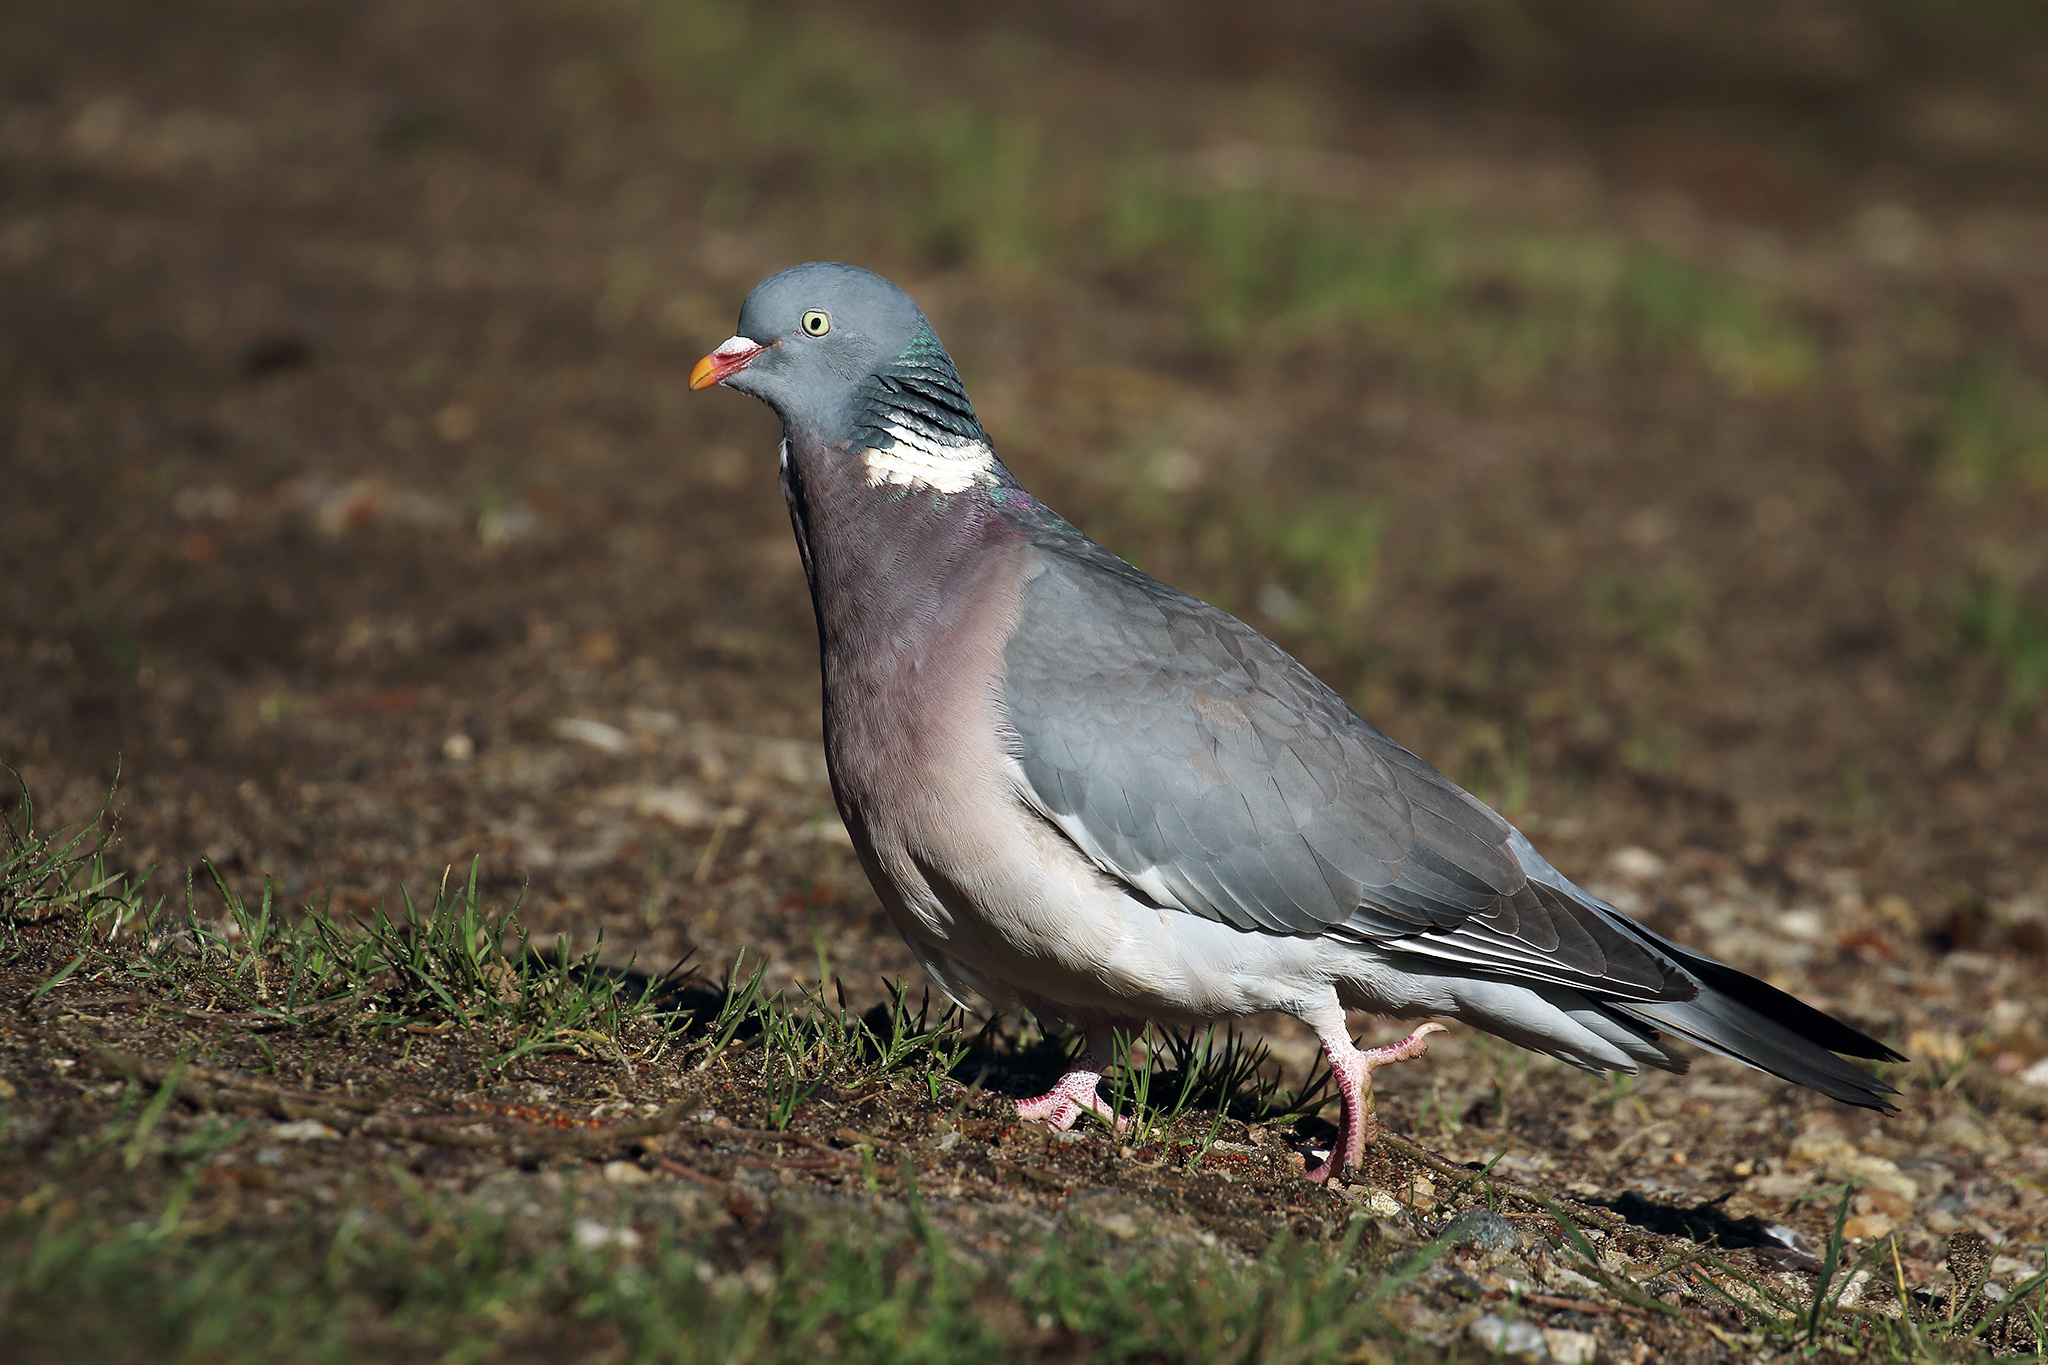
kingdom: Animalia
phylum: Chordata
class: Aves
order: Columbiformes
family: Columbidae
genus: Columba
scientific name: Columba palumbus
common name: Common wood pigeon
